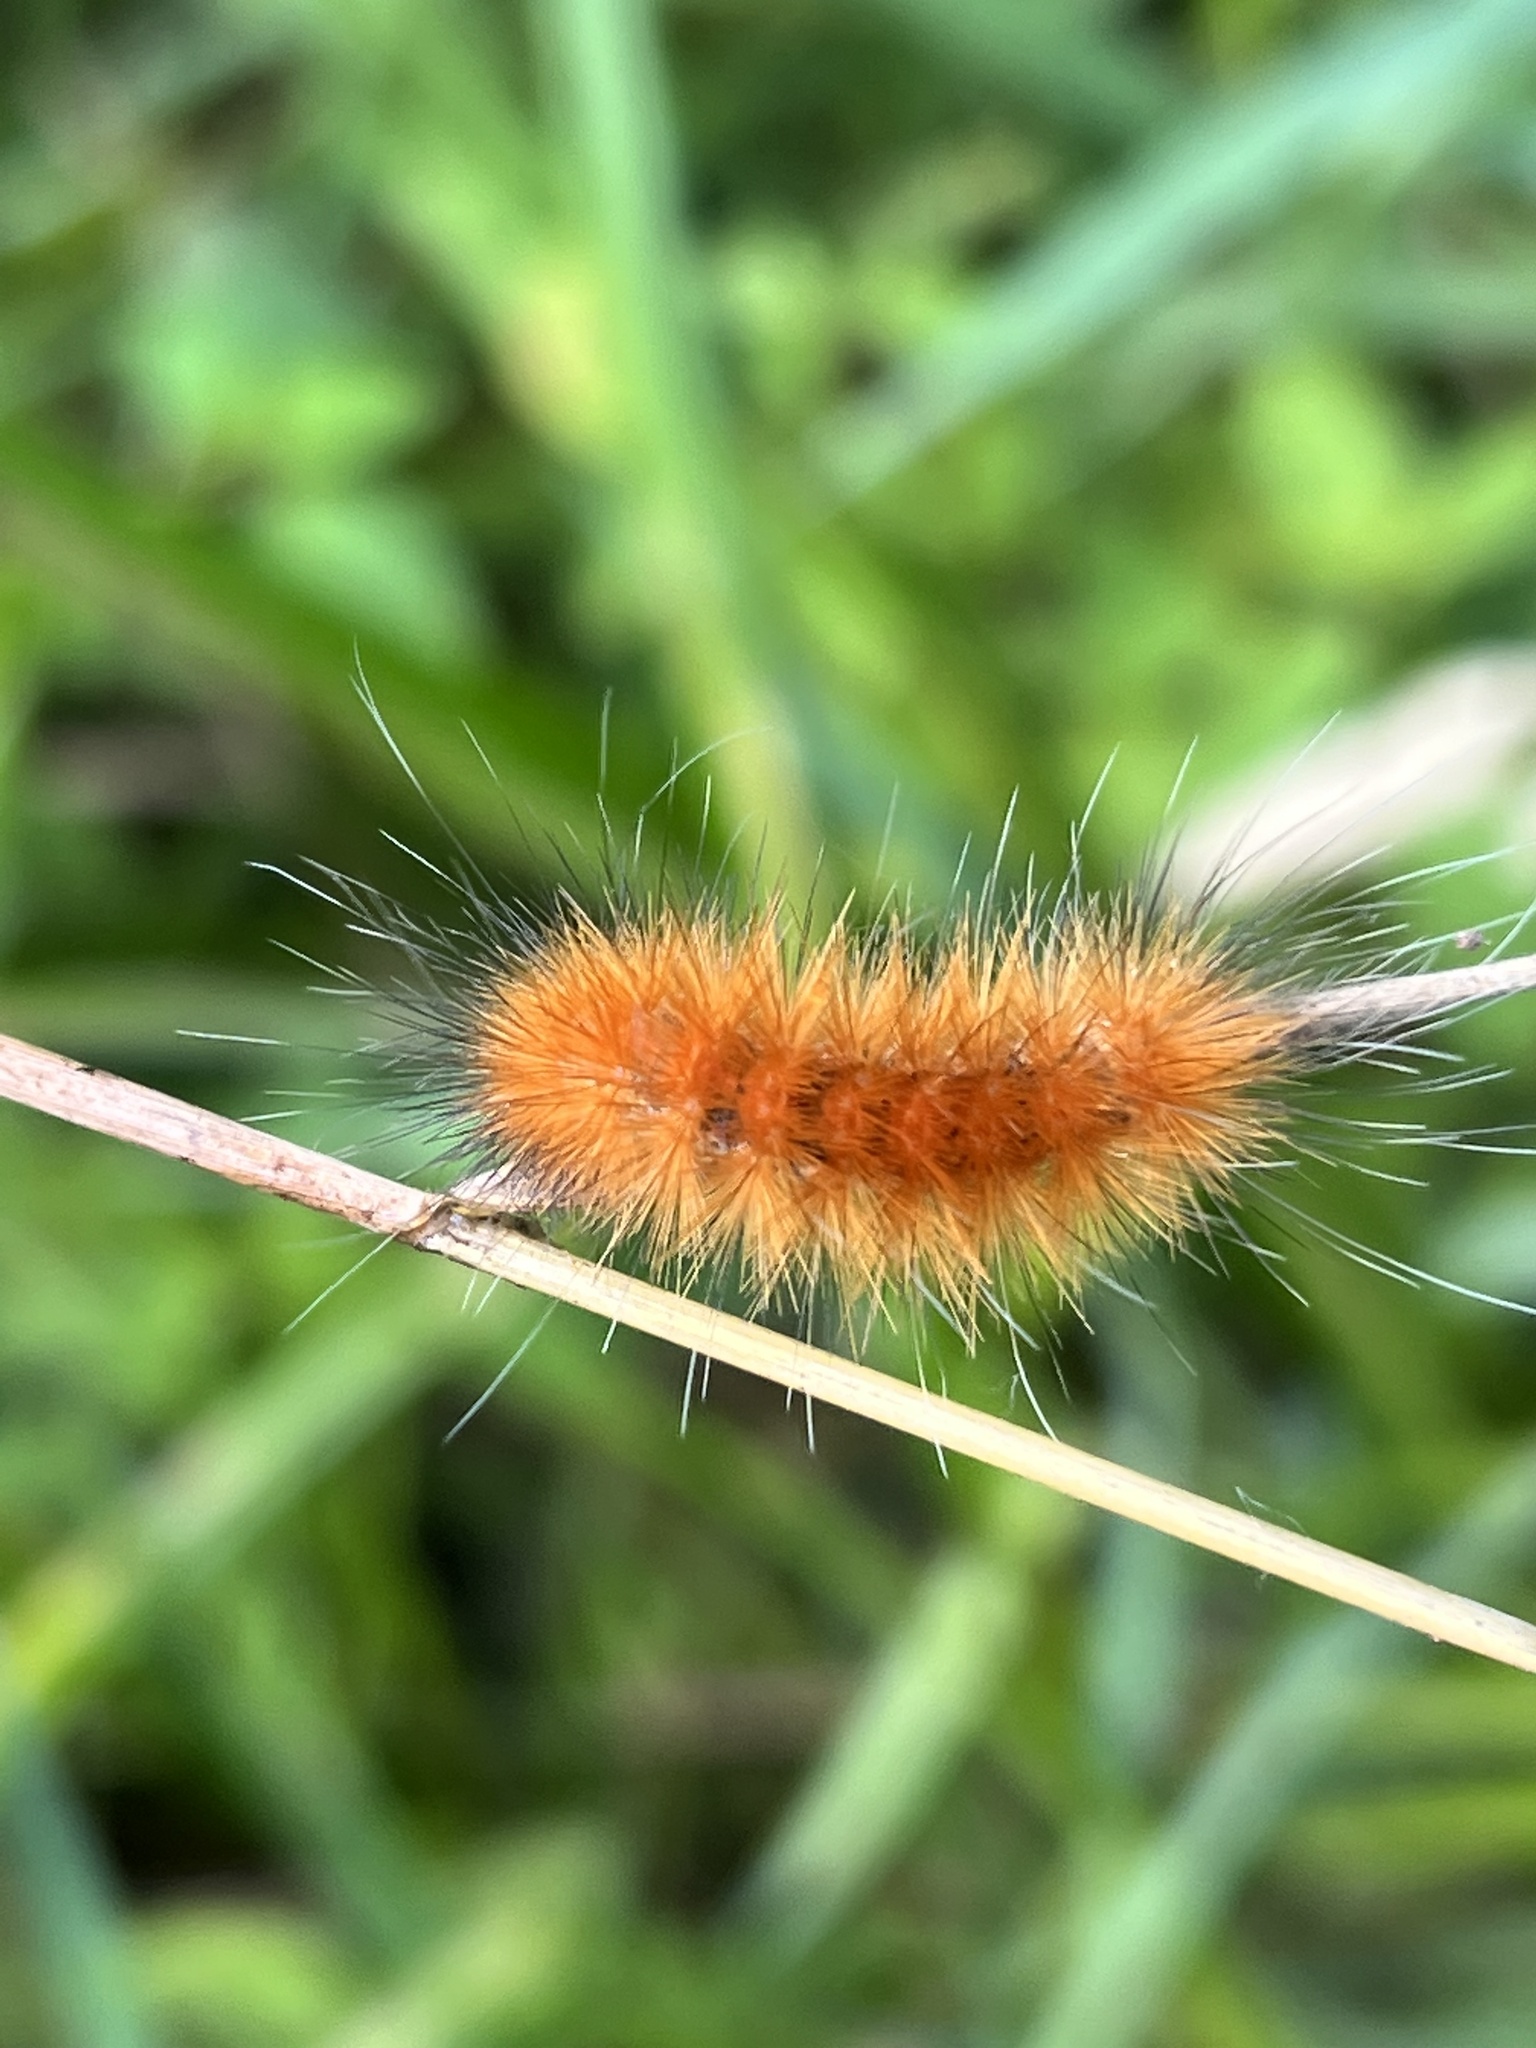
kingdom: Animalia
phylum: Arthropoda
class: Insecta
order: Lepidoptera
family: Erebidae
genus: Spilosoma
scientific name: Spilosoma virginica
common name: Virginia tiger moth
